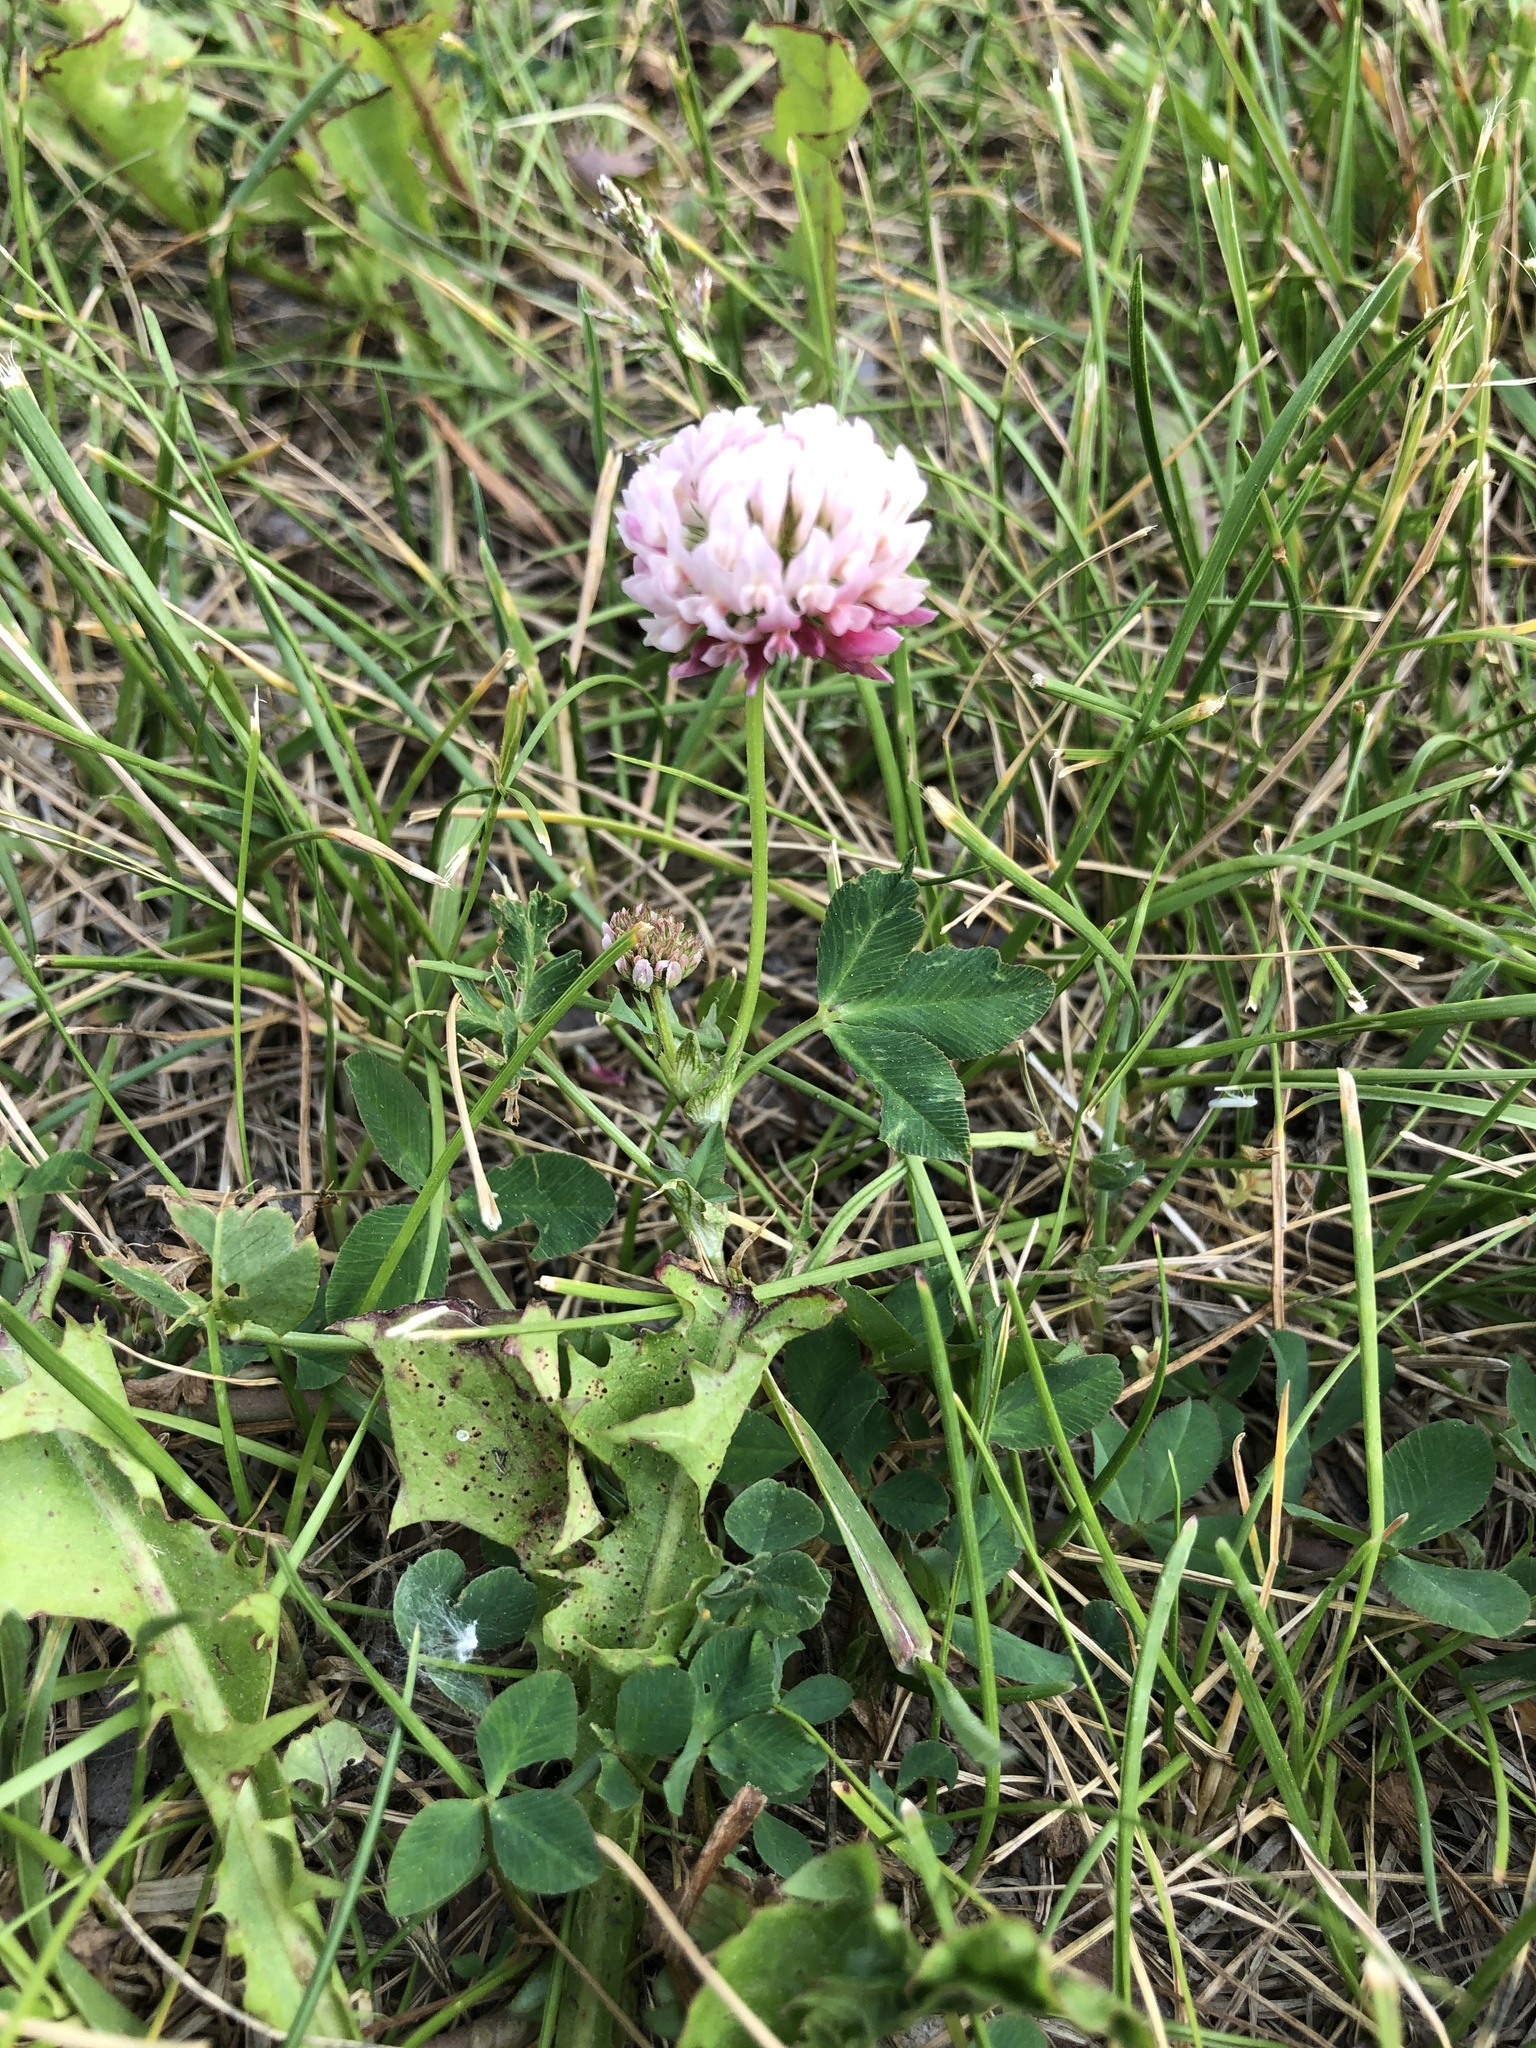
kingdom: Plantae
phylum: Tracheophyta
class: Magnoliopsida
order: Fabales
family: Fabaceae
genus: Trifolium
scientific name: Trifolium hybridum
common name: Alsike clover
